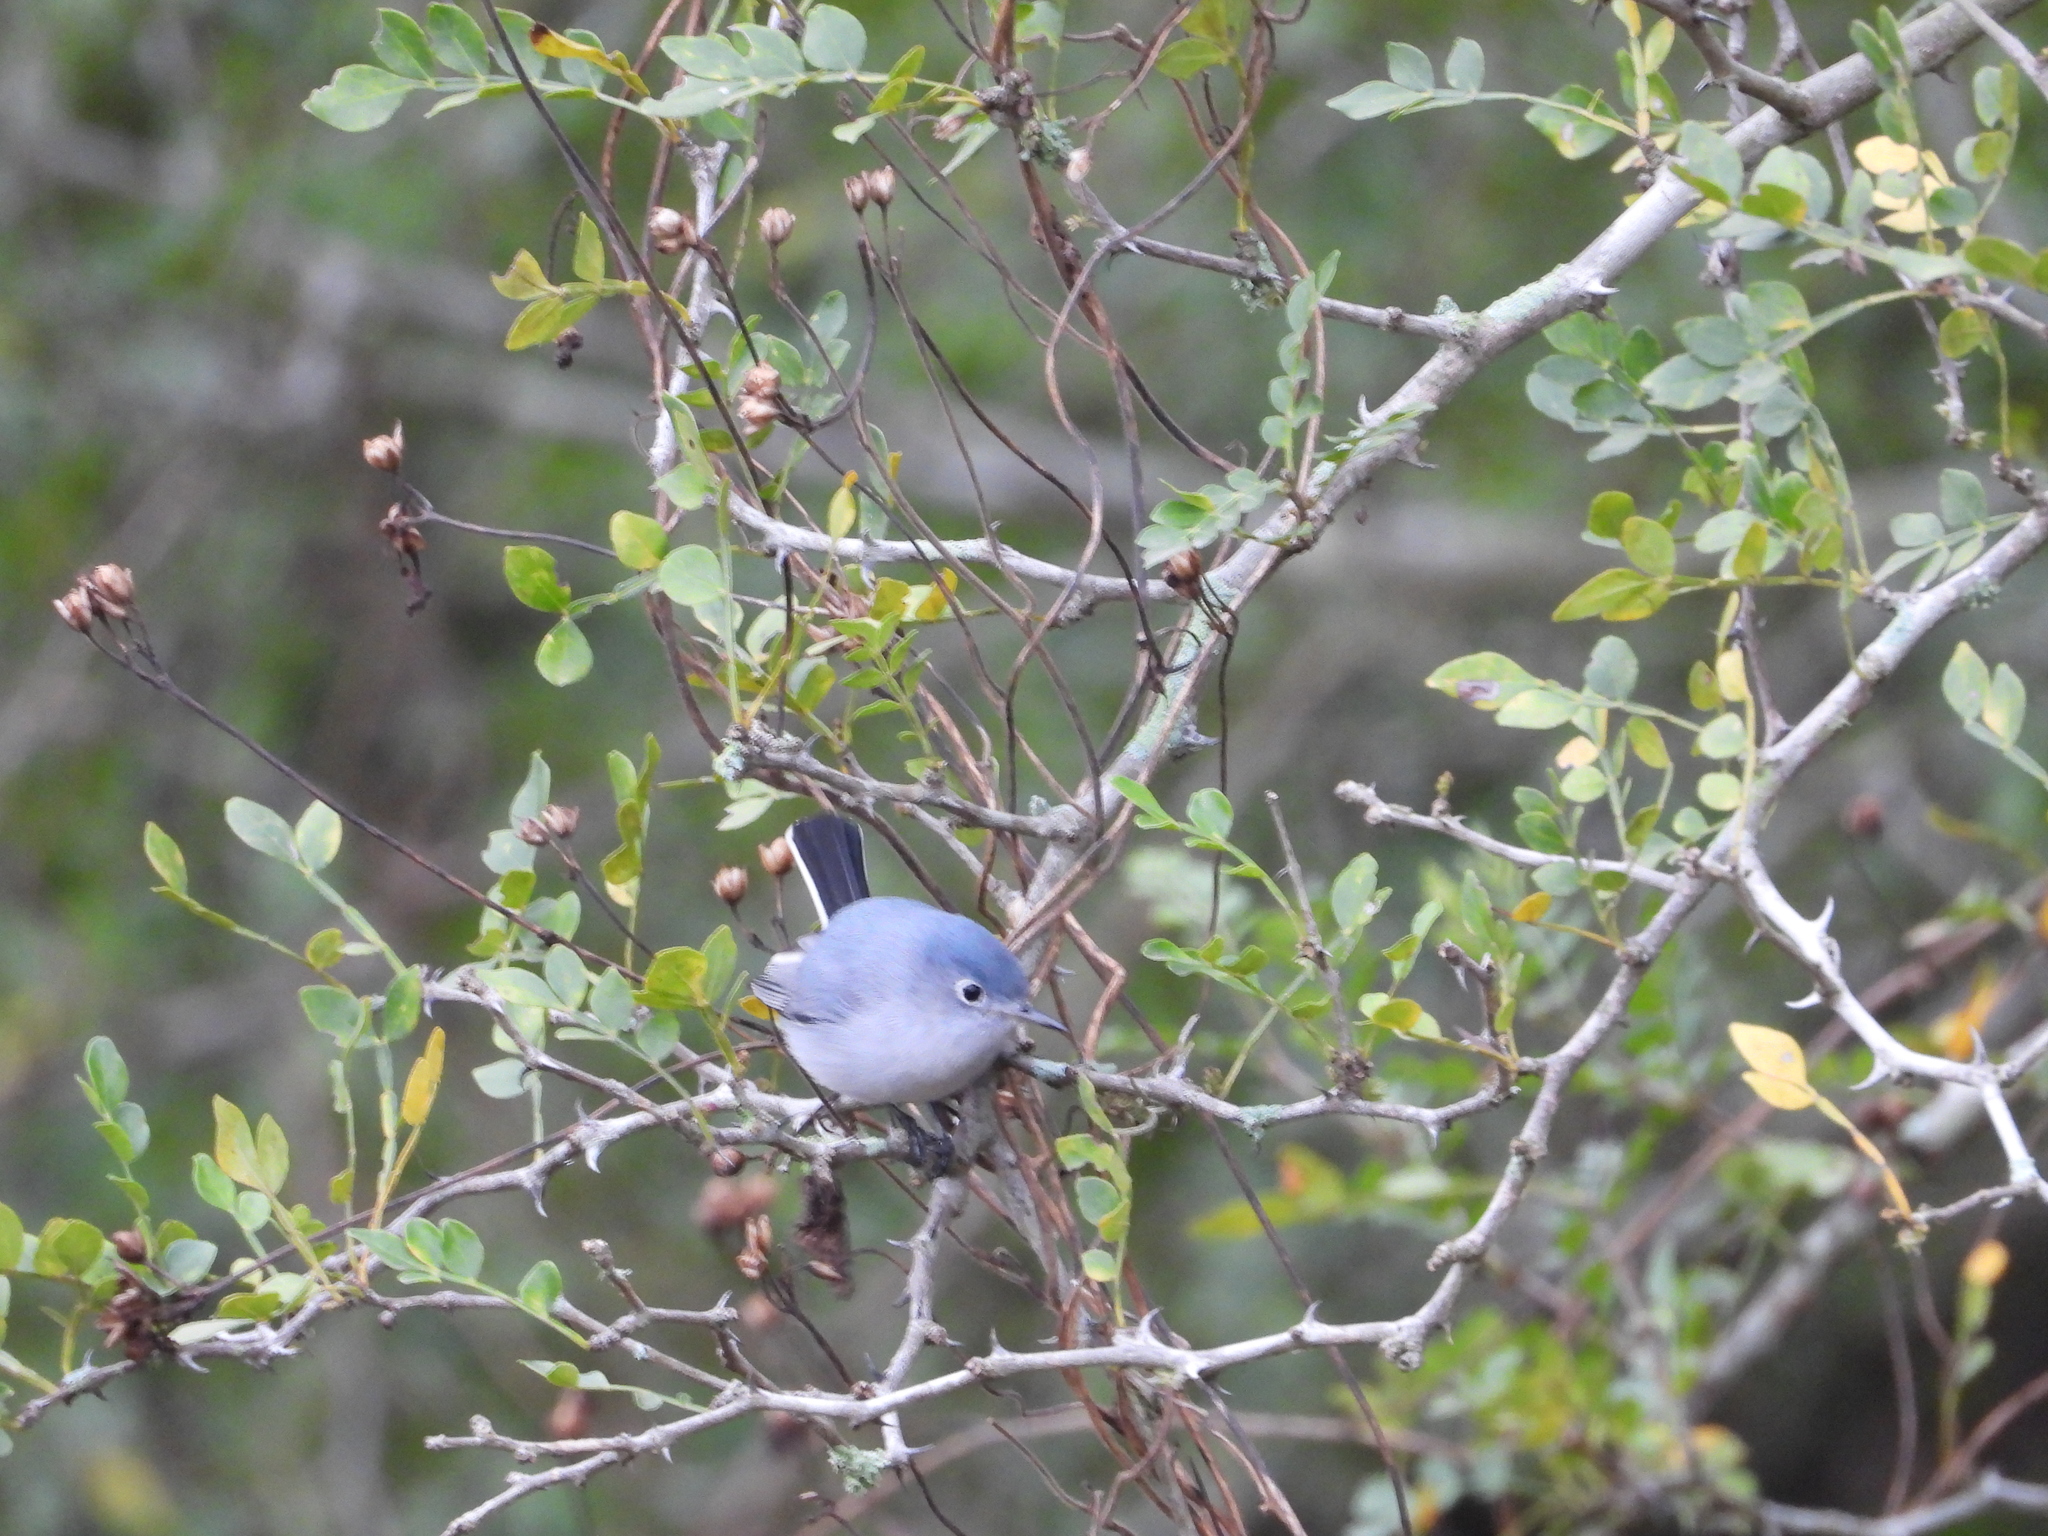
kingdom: Animalia
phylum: Chordata
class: Aves
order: Passeriformes
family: Polioptilidae
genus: Polioptila
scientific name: Polioptila caerulea
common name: Blue-gray gnatcatcher
